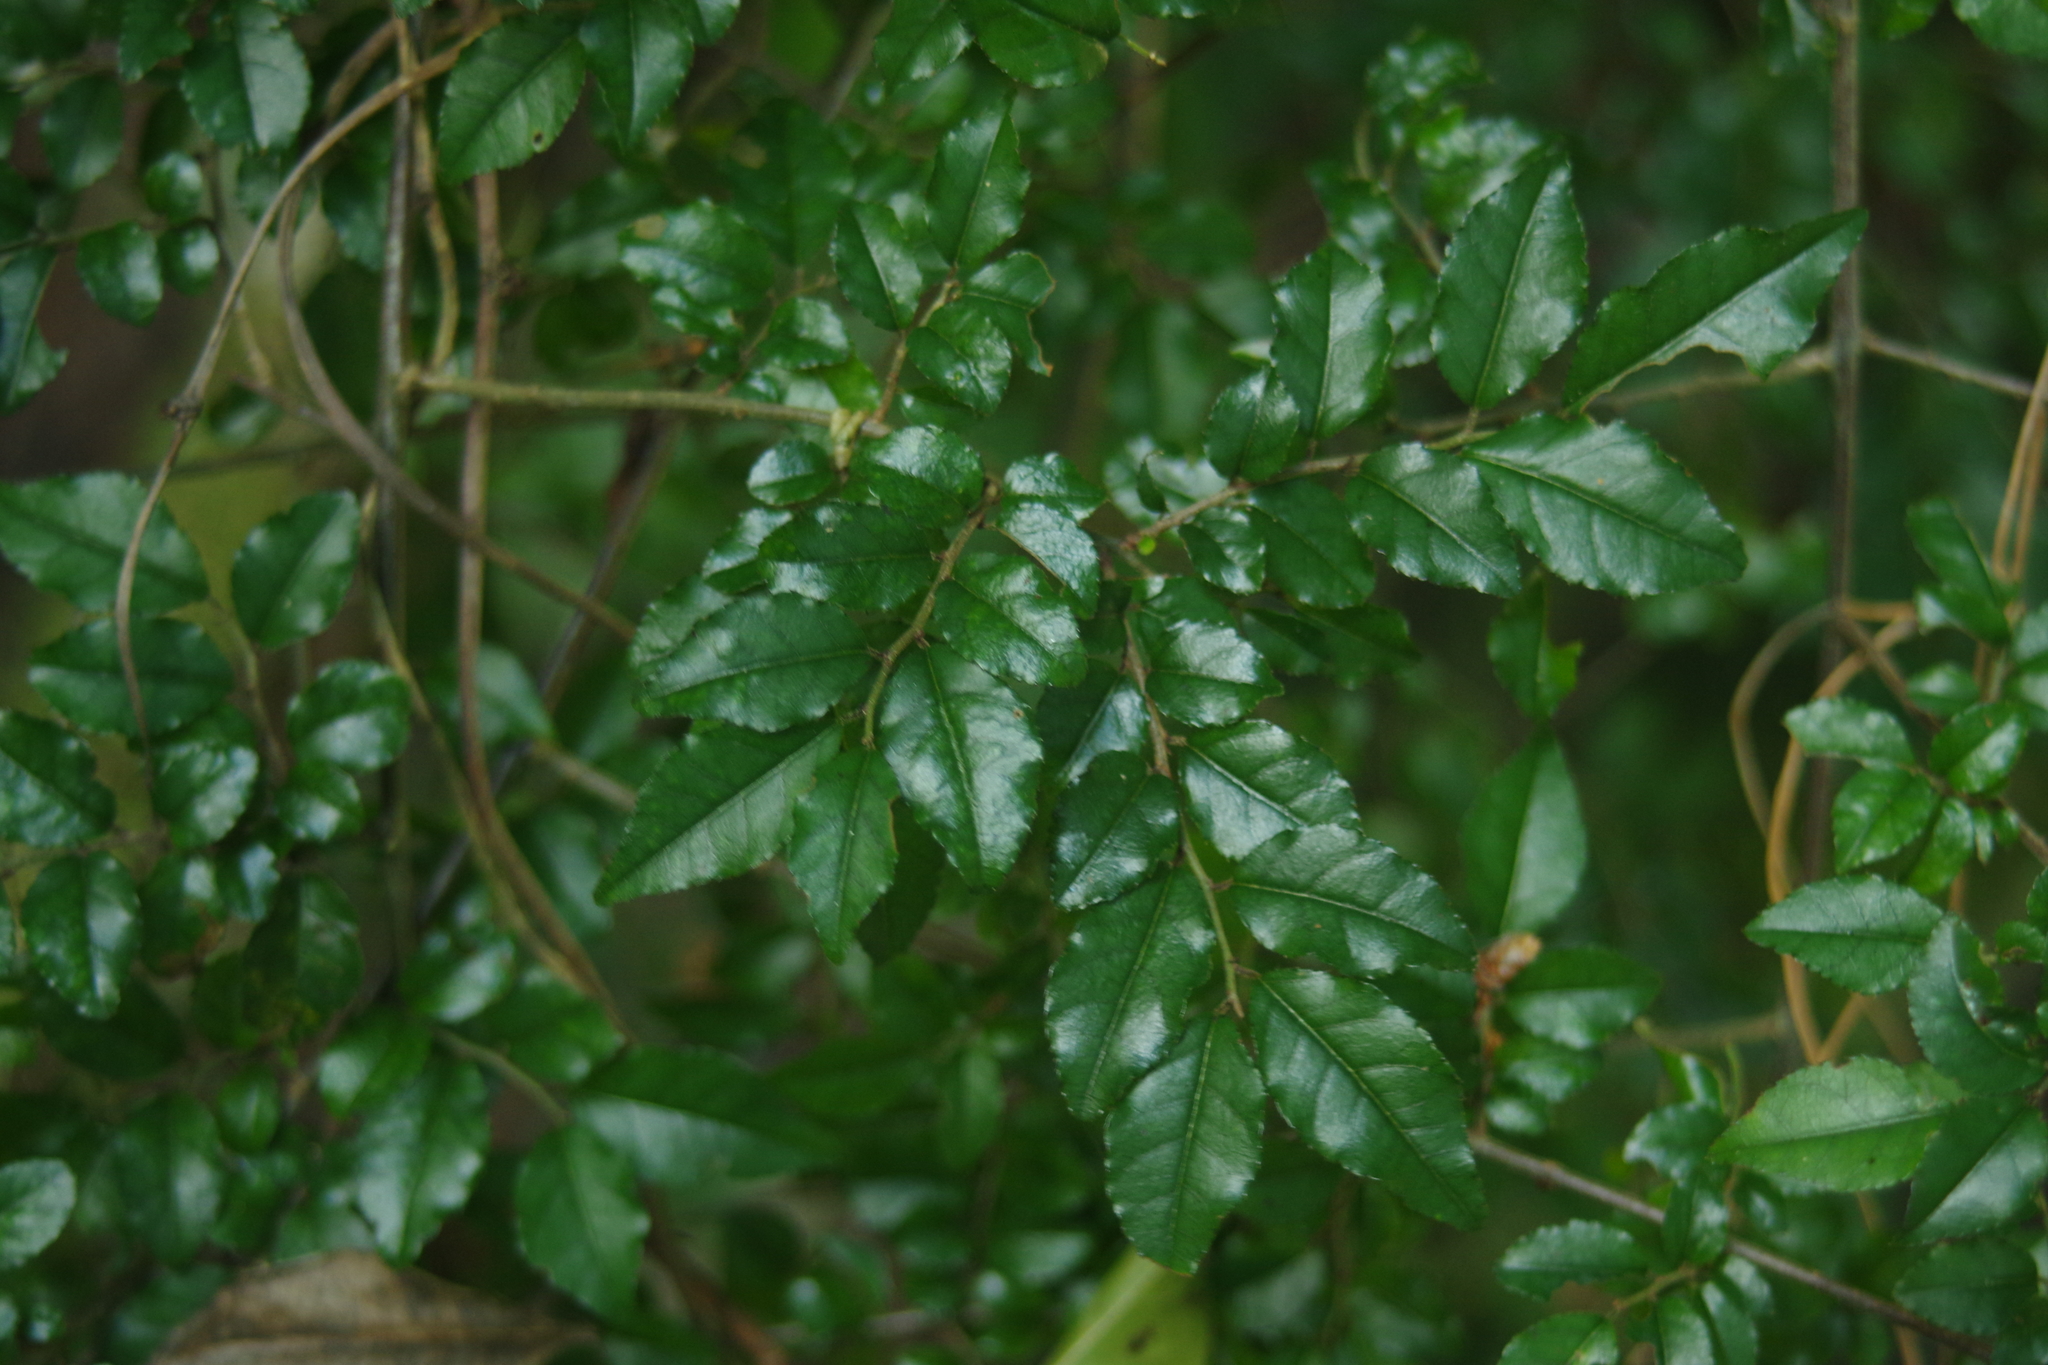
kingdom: Plantae
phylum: Tracheophyta
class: Magnoliopsida
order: Rosales
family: Rhamnaceae
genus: Ventilago
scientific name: Ventilago leiocarpa
